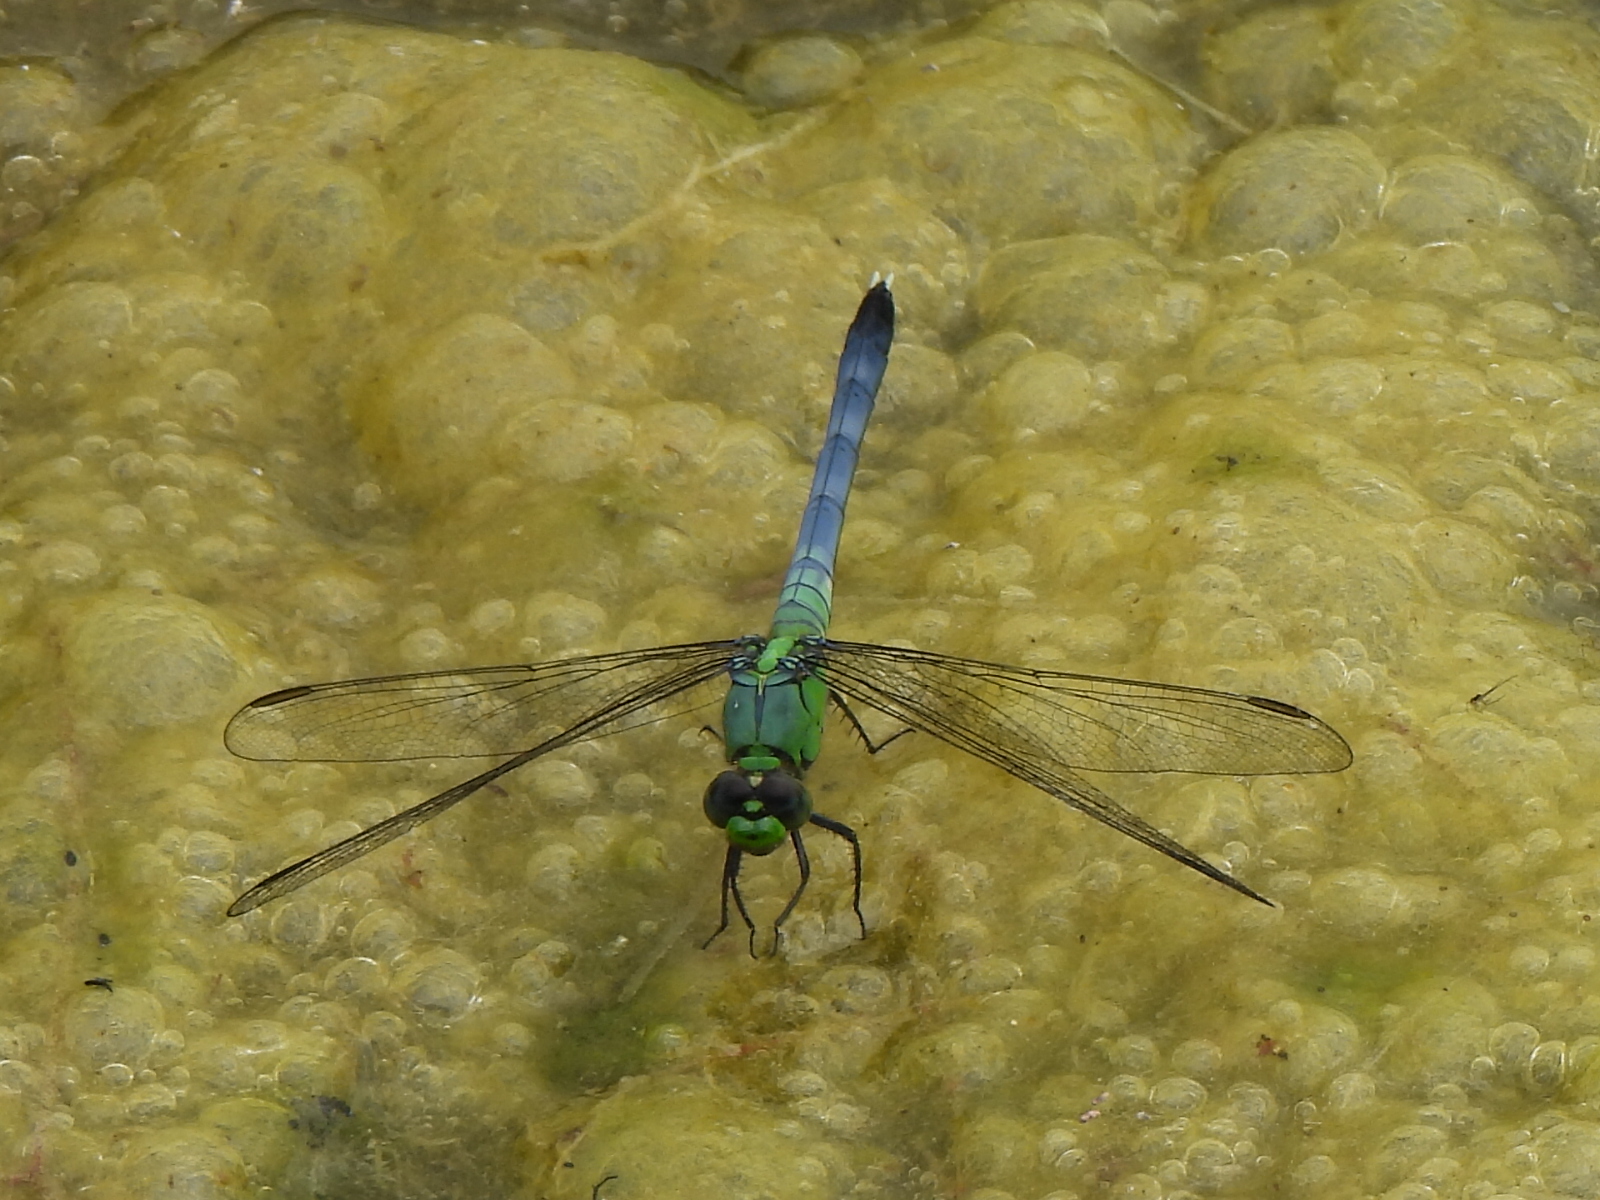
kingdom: Animalia
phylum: Arthropoda
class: Insecta
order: Odonata
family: Libellulidae
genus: Erythemis
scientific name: Erythemis simplicicollis
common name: Eastern pondhawk
